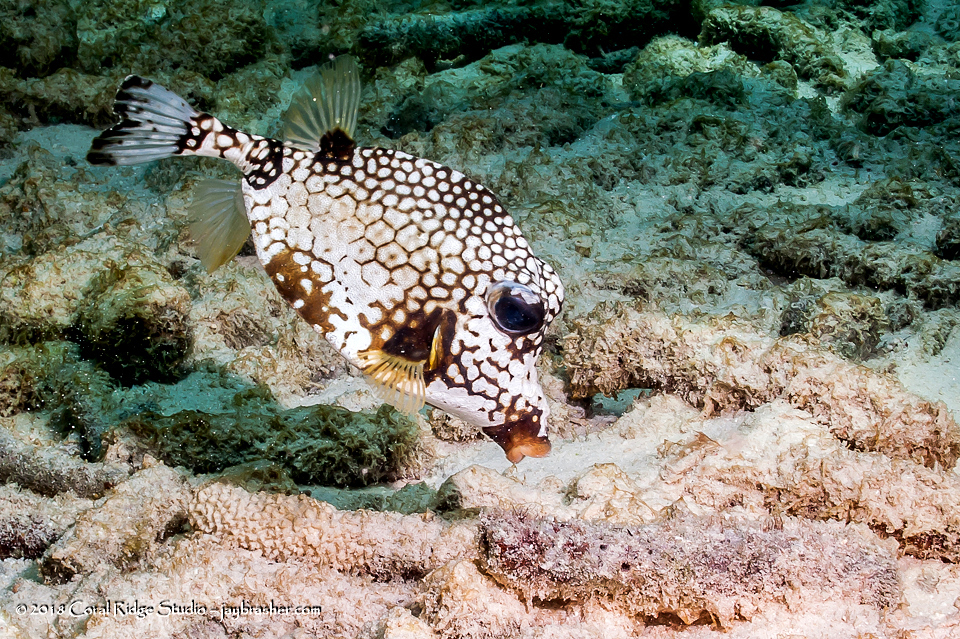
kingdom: Animalia
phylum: Chordata
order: Tetraodontiformes
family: Ostraciidae
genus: Lactophrys
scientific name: Lactophrys triqueter
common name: Smooth trunkfish
